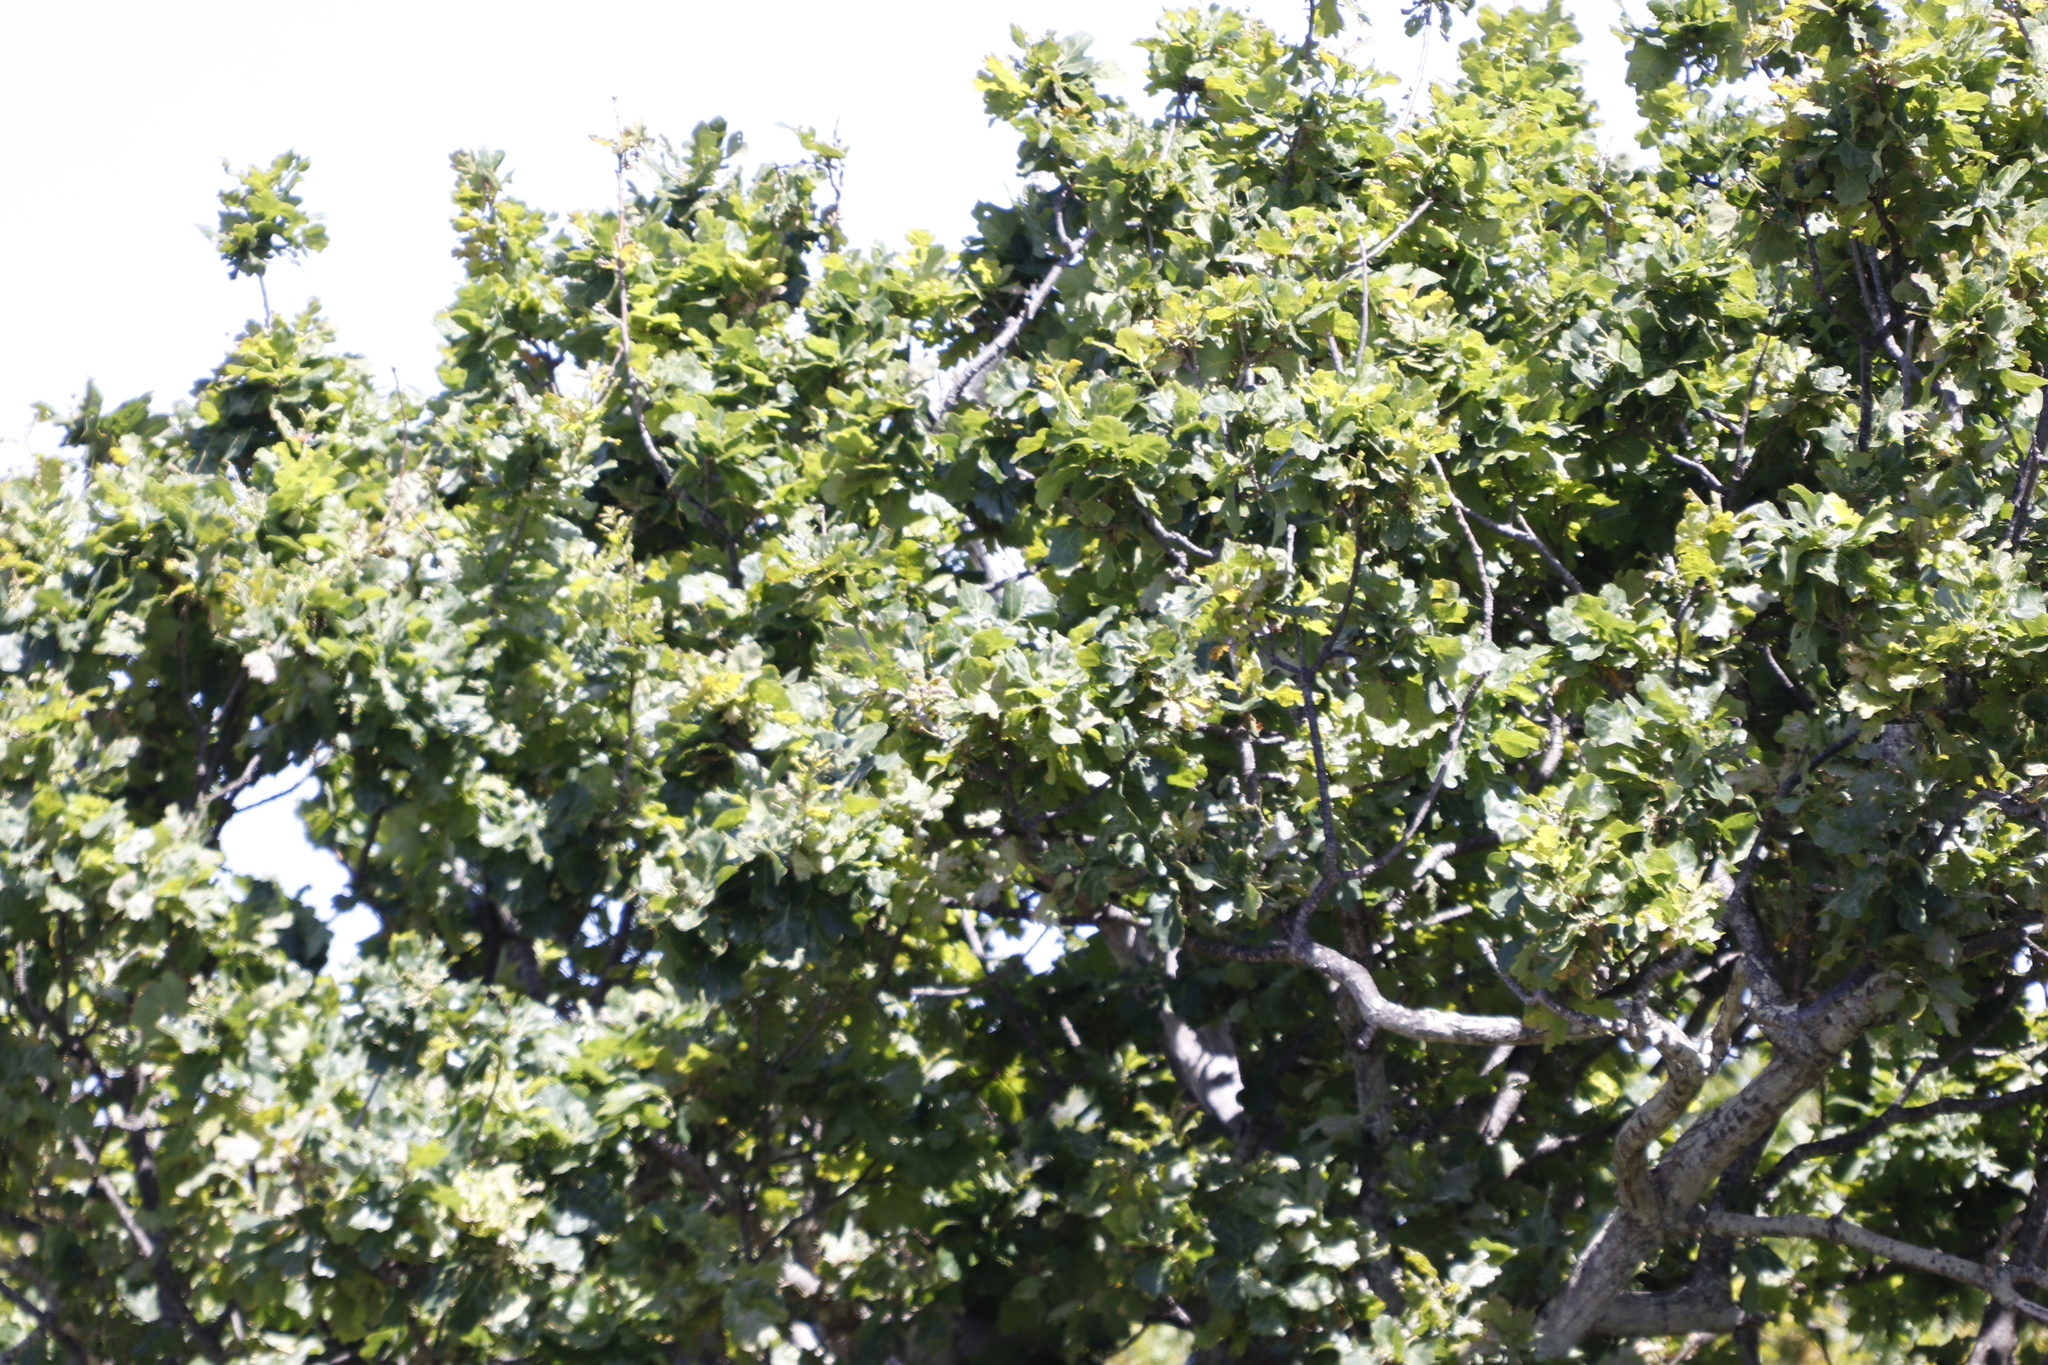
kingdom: Plantae
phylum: Tracheophyta
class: Magnoliopsida
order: Fagales
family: Fagaceae
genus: Quercus
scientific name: Quercus robur
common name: Pedunculate oak
